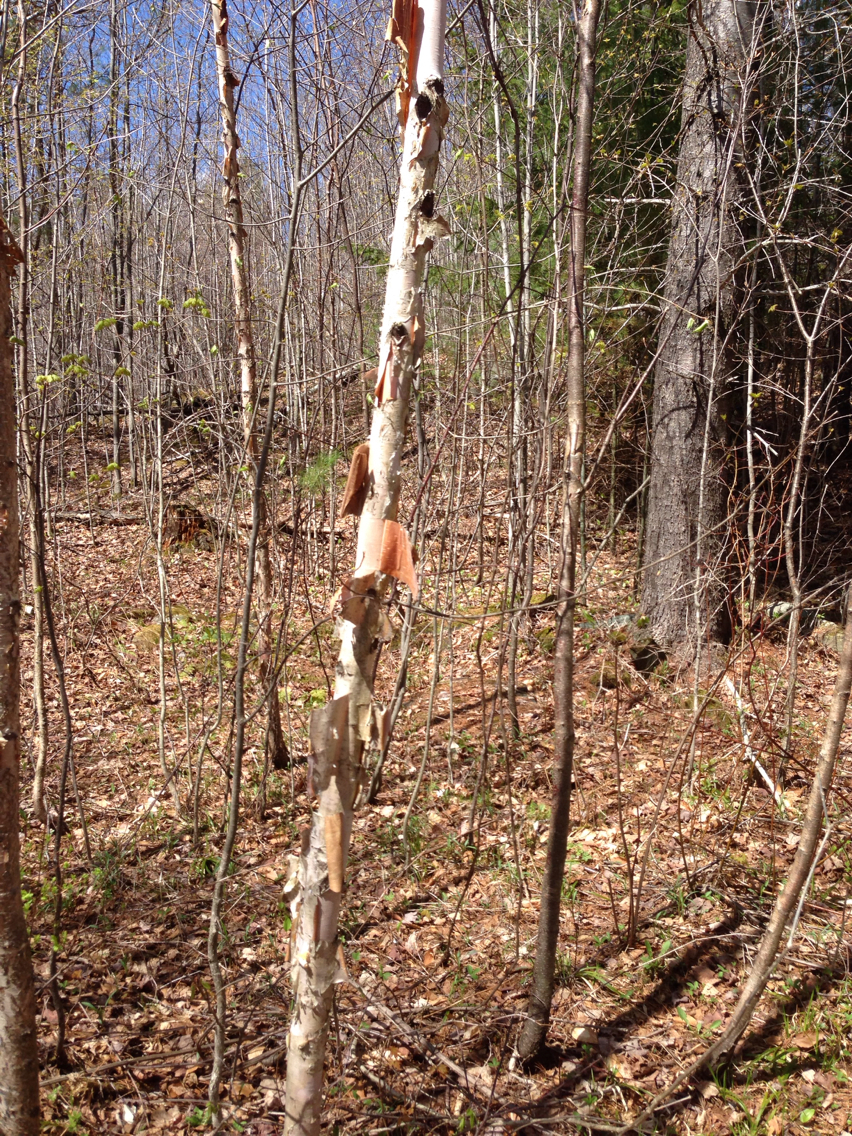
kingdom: Plantae
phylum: Tracheophyta
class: Magnoliopsida
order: Fagales
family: Betulaceae
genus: Betula
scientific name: Betula papyrifera
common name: Paper birch
